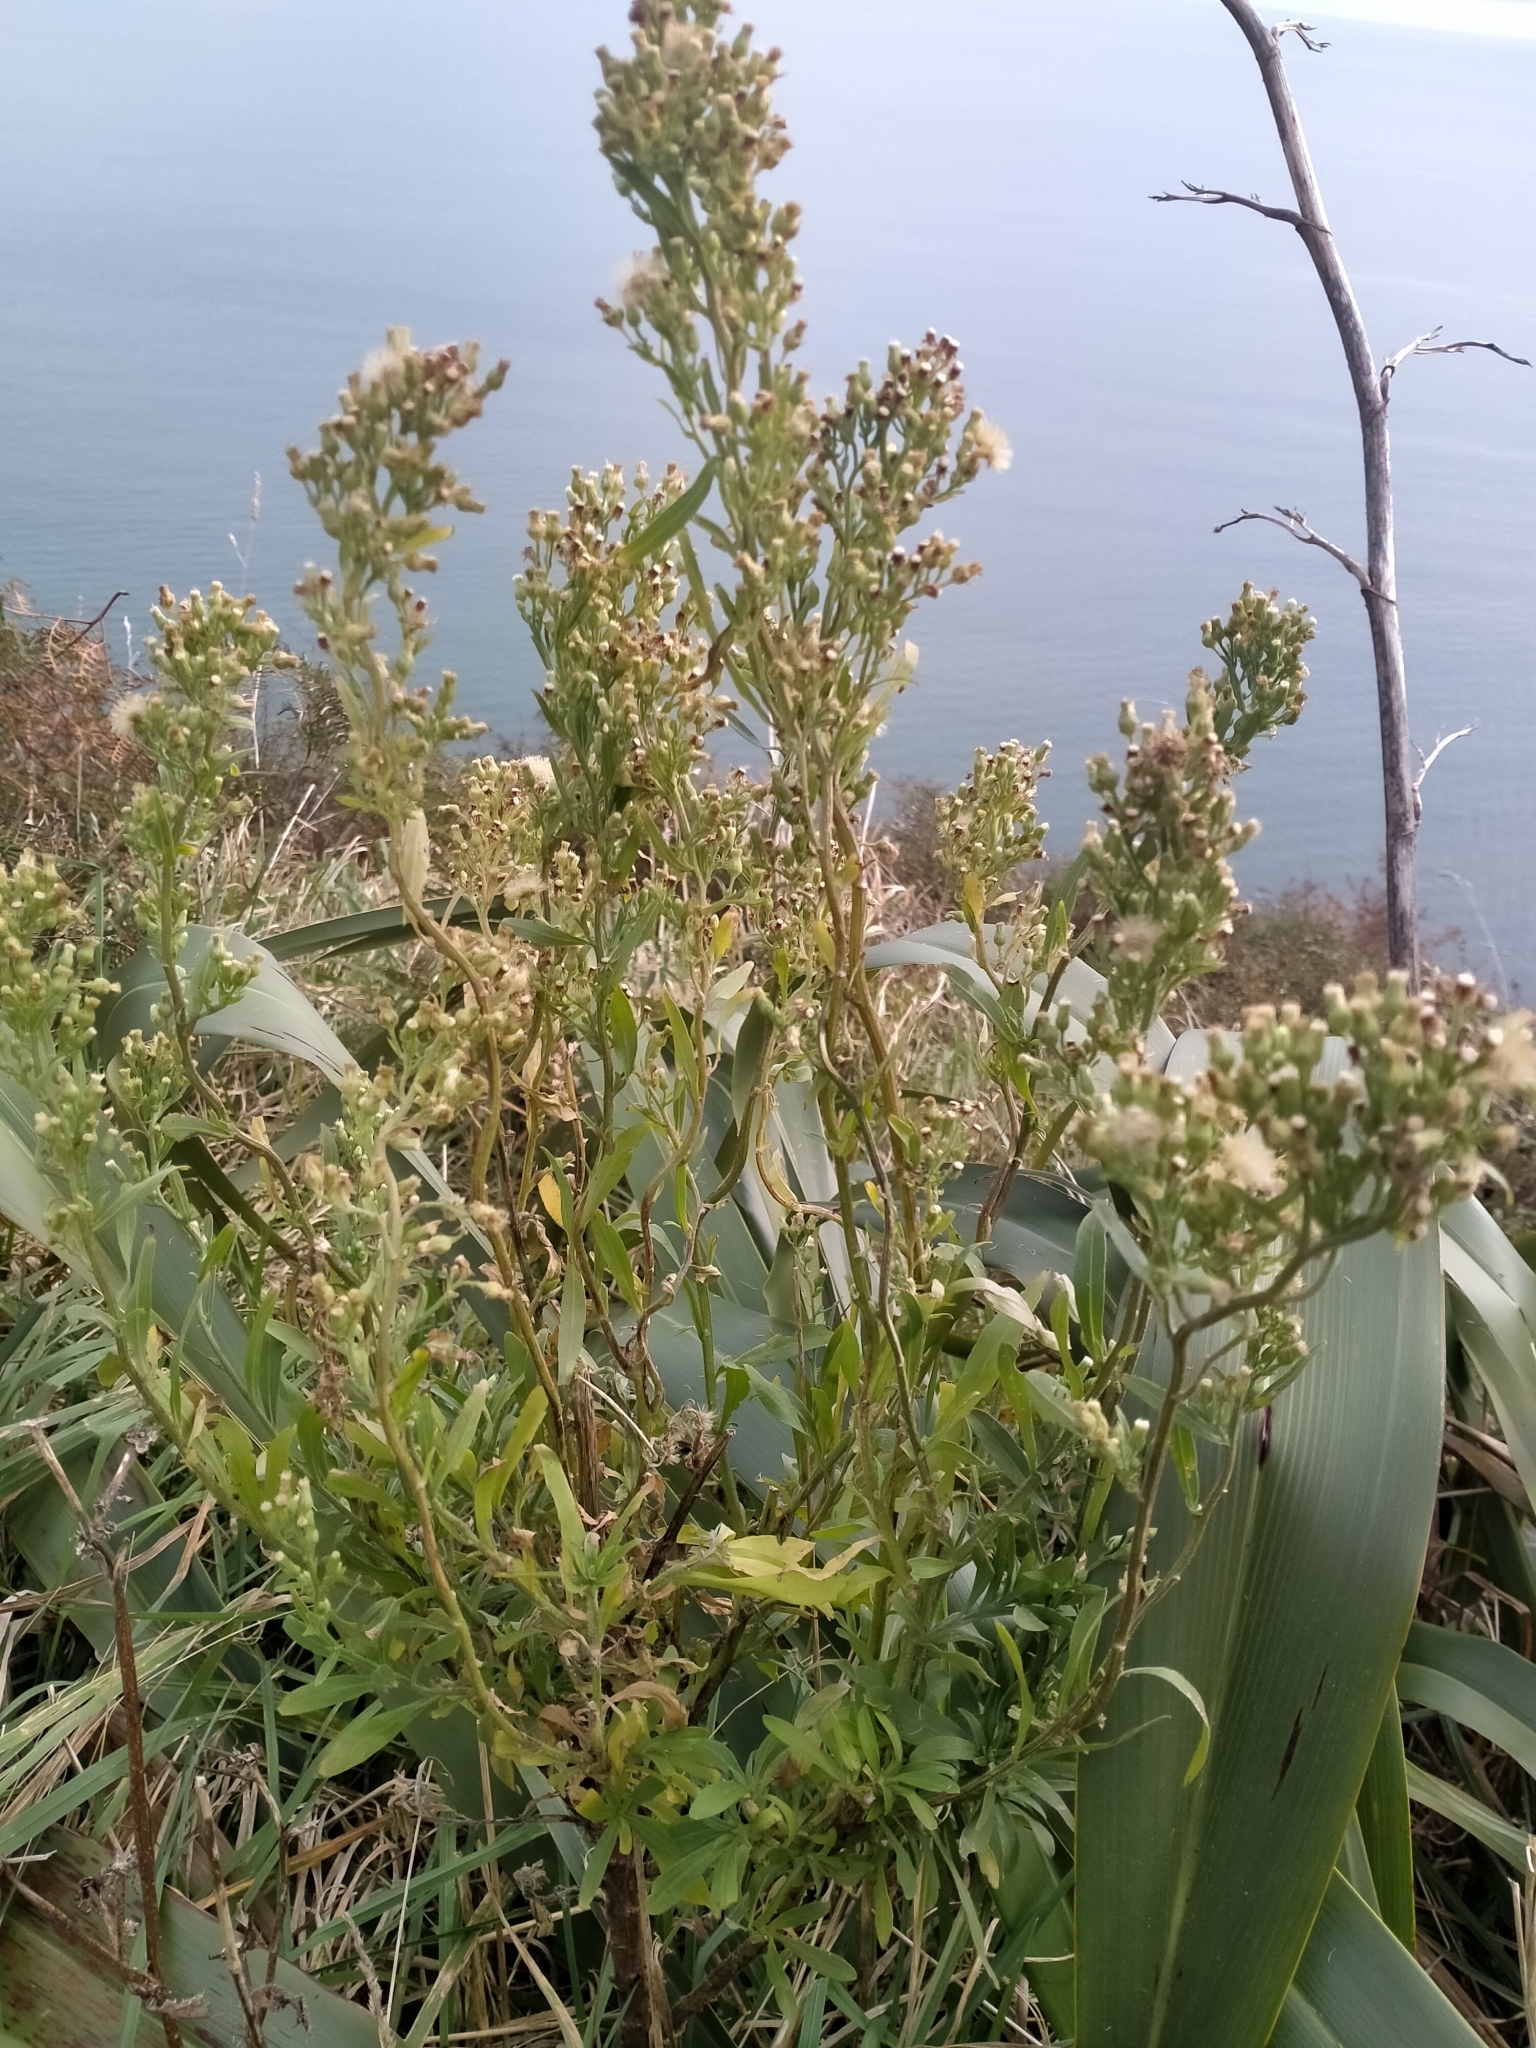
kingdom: Plantae
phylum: Tracheophyta
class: Magnoliopsida
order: Asterales
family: Asteraceae
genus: Erigeron
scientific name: Erigeron sumatrensis
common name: Daisy
